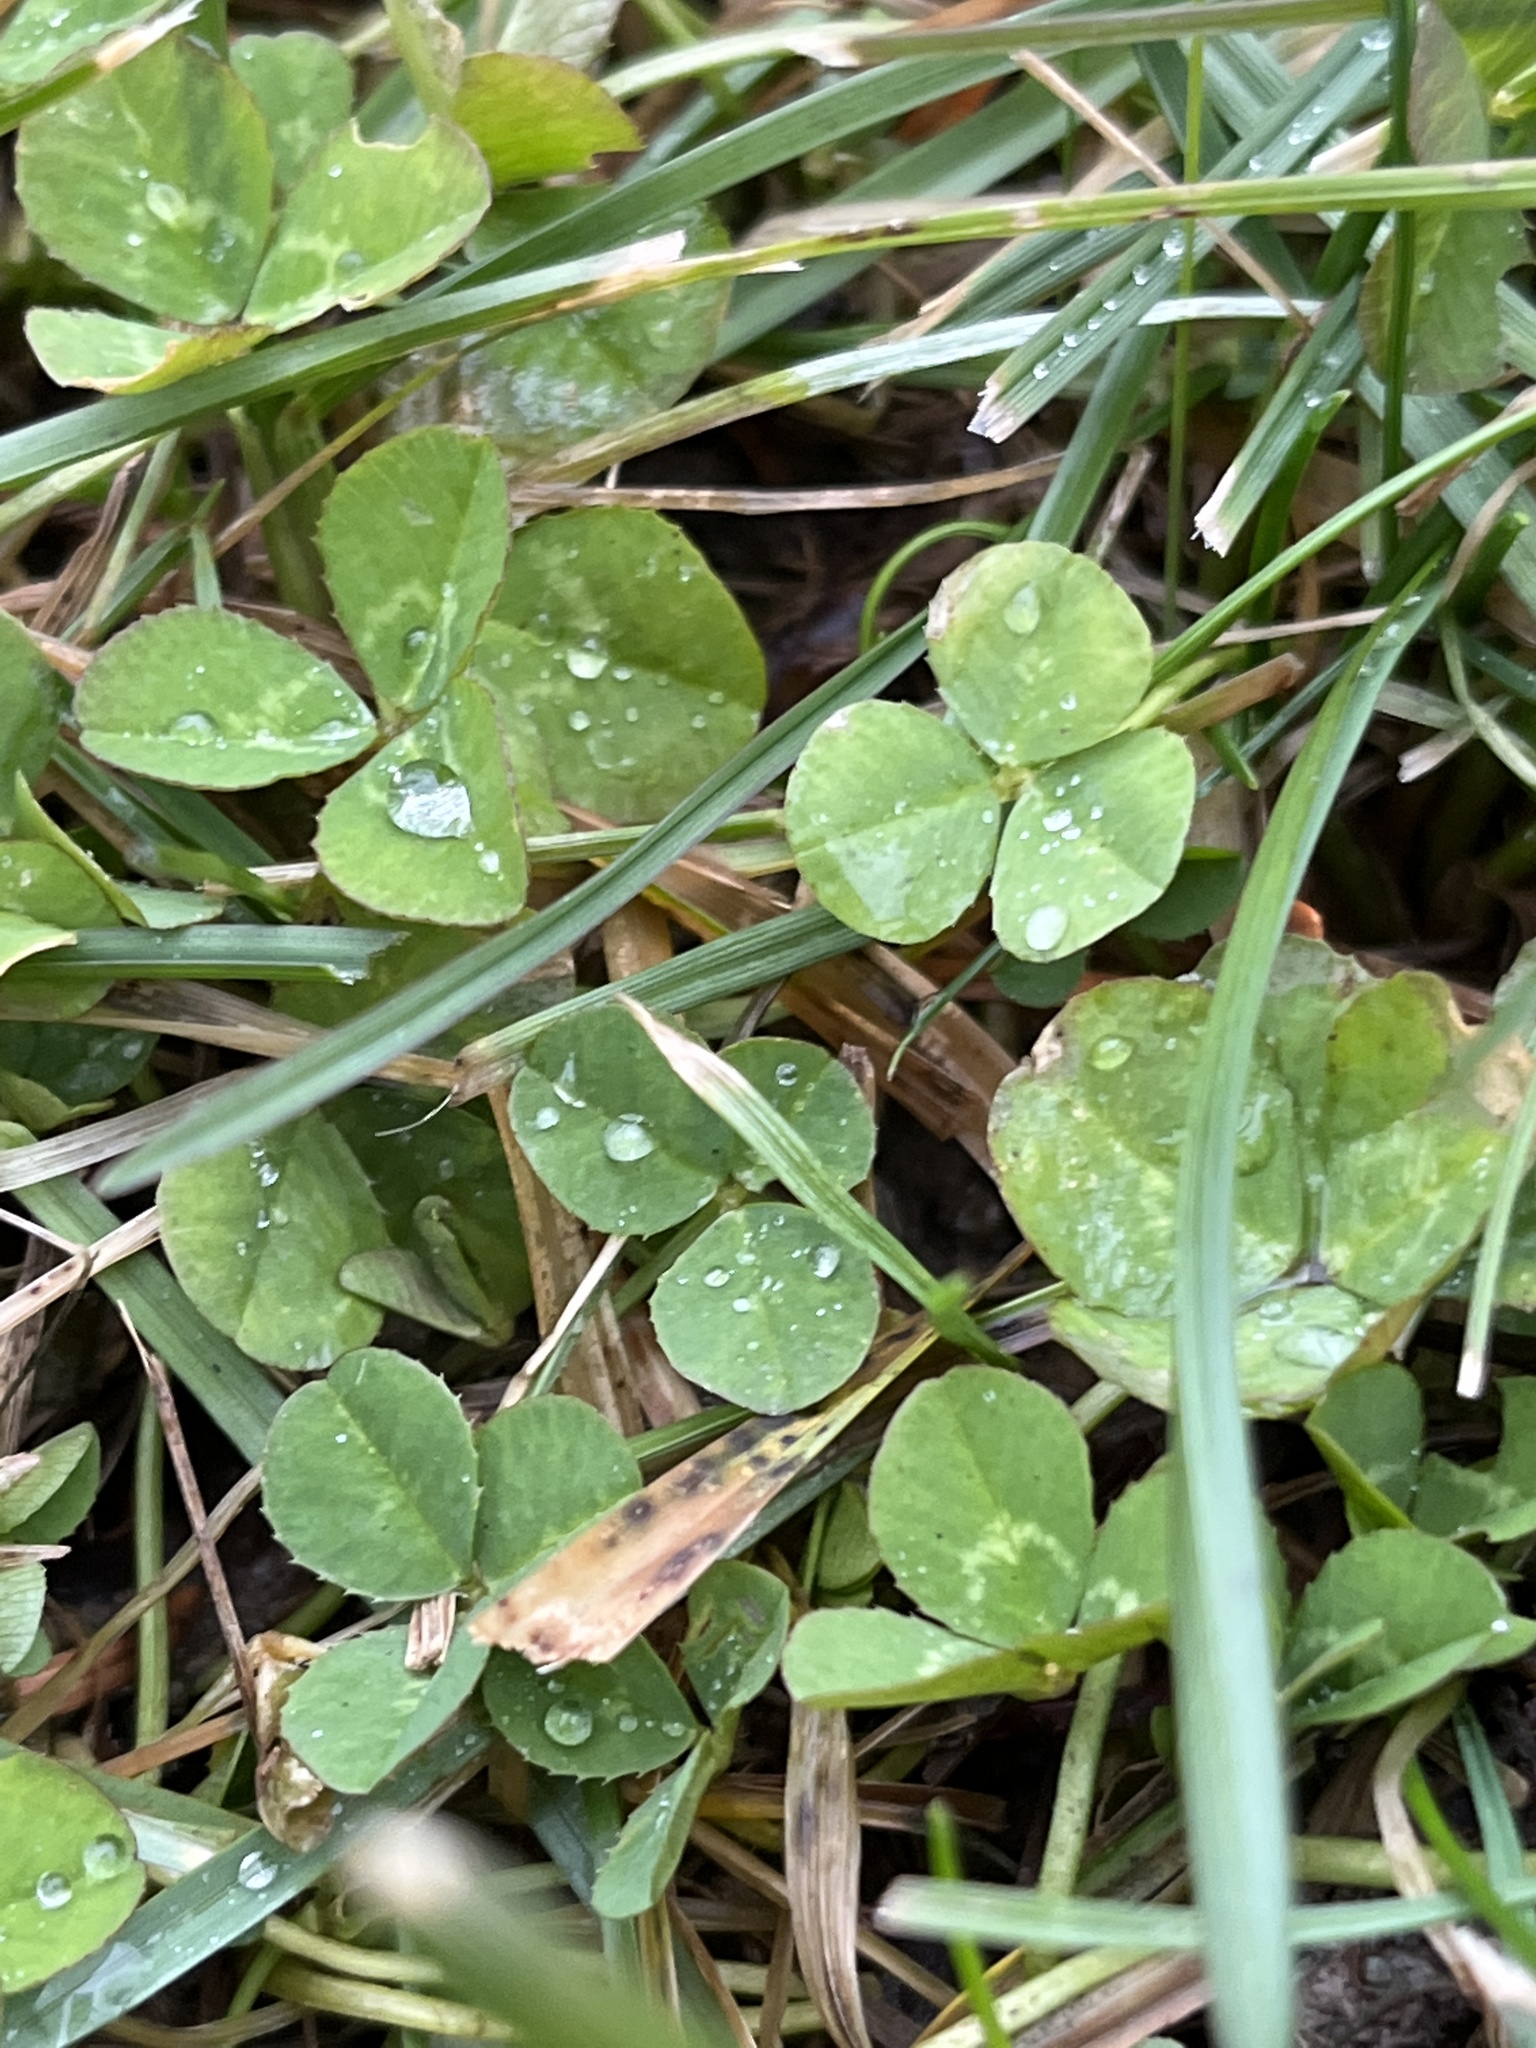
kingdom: Plantae
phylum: Tracheophyta
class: Magnoliopsida
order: Fabales
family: Fabaceae
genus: Trifolium
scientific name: Trifolium repens
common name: White clover
